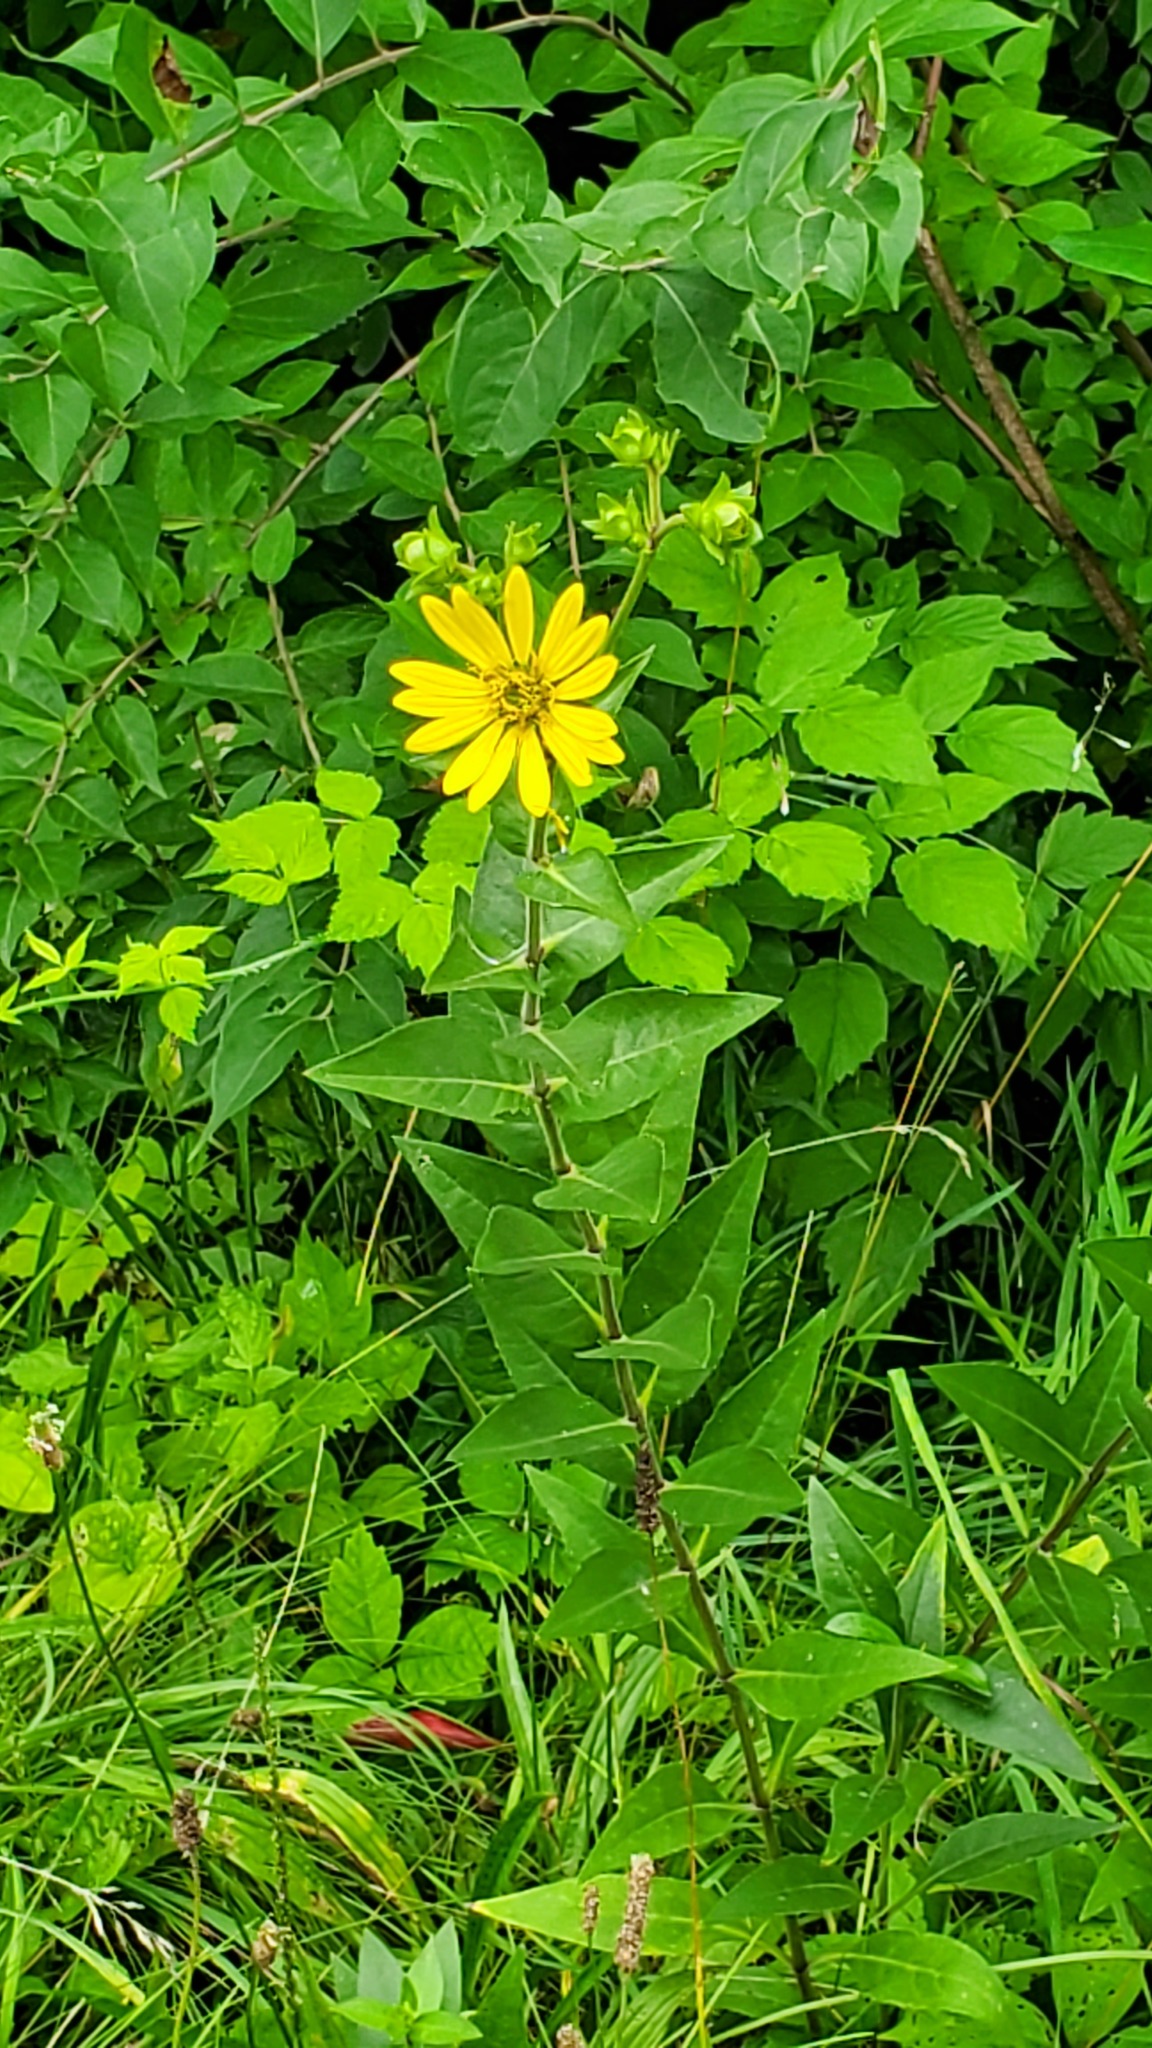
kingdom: Plantae
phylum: Tracheophyta
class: Magnoliopsida
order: Asterales
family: Asteraceae
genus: Silphium
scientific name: Silphium integrifolium
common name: Whole-leaf rosinweed
